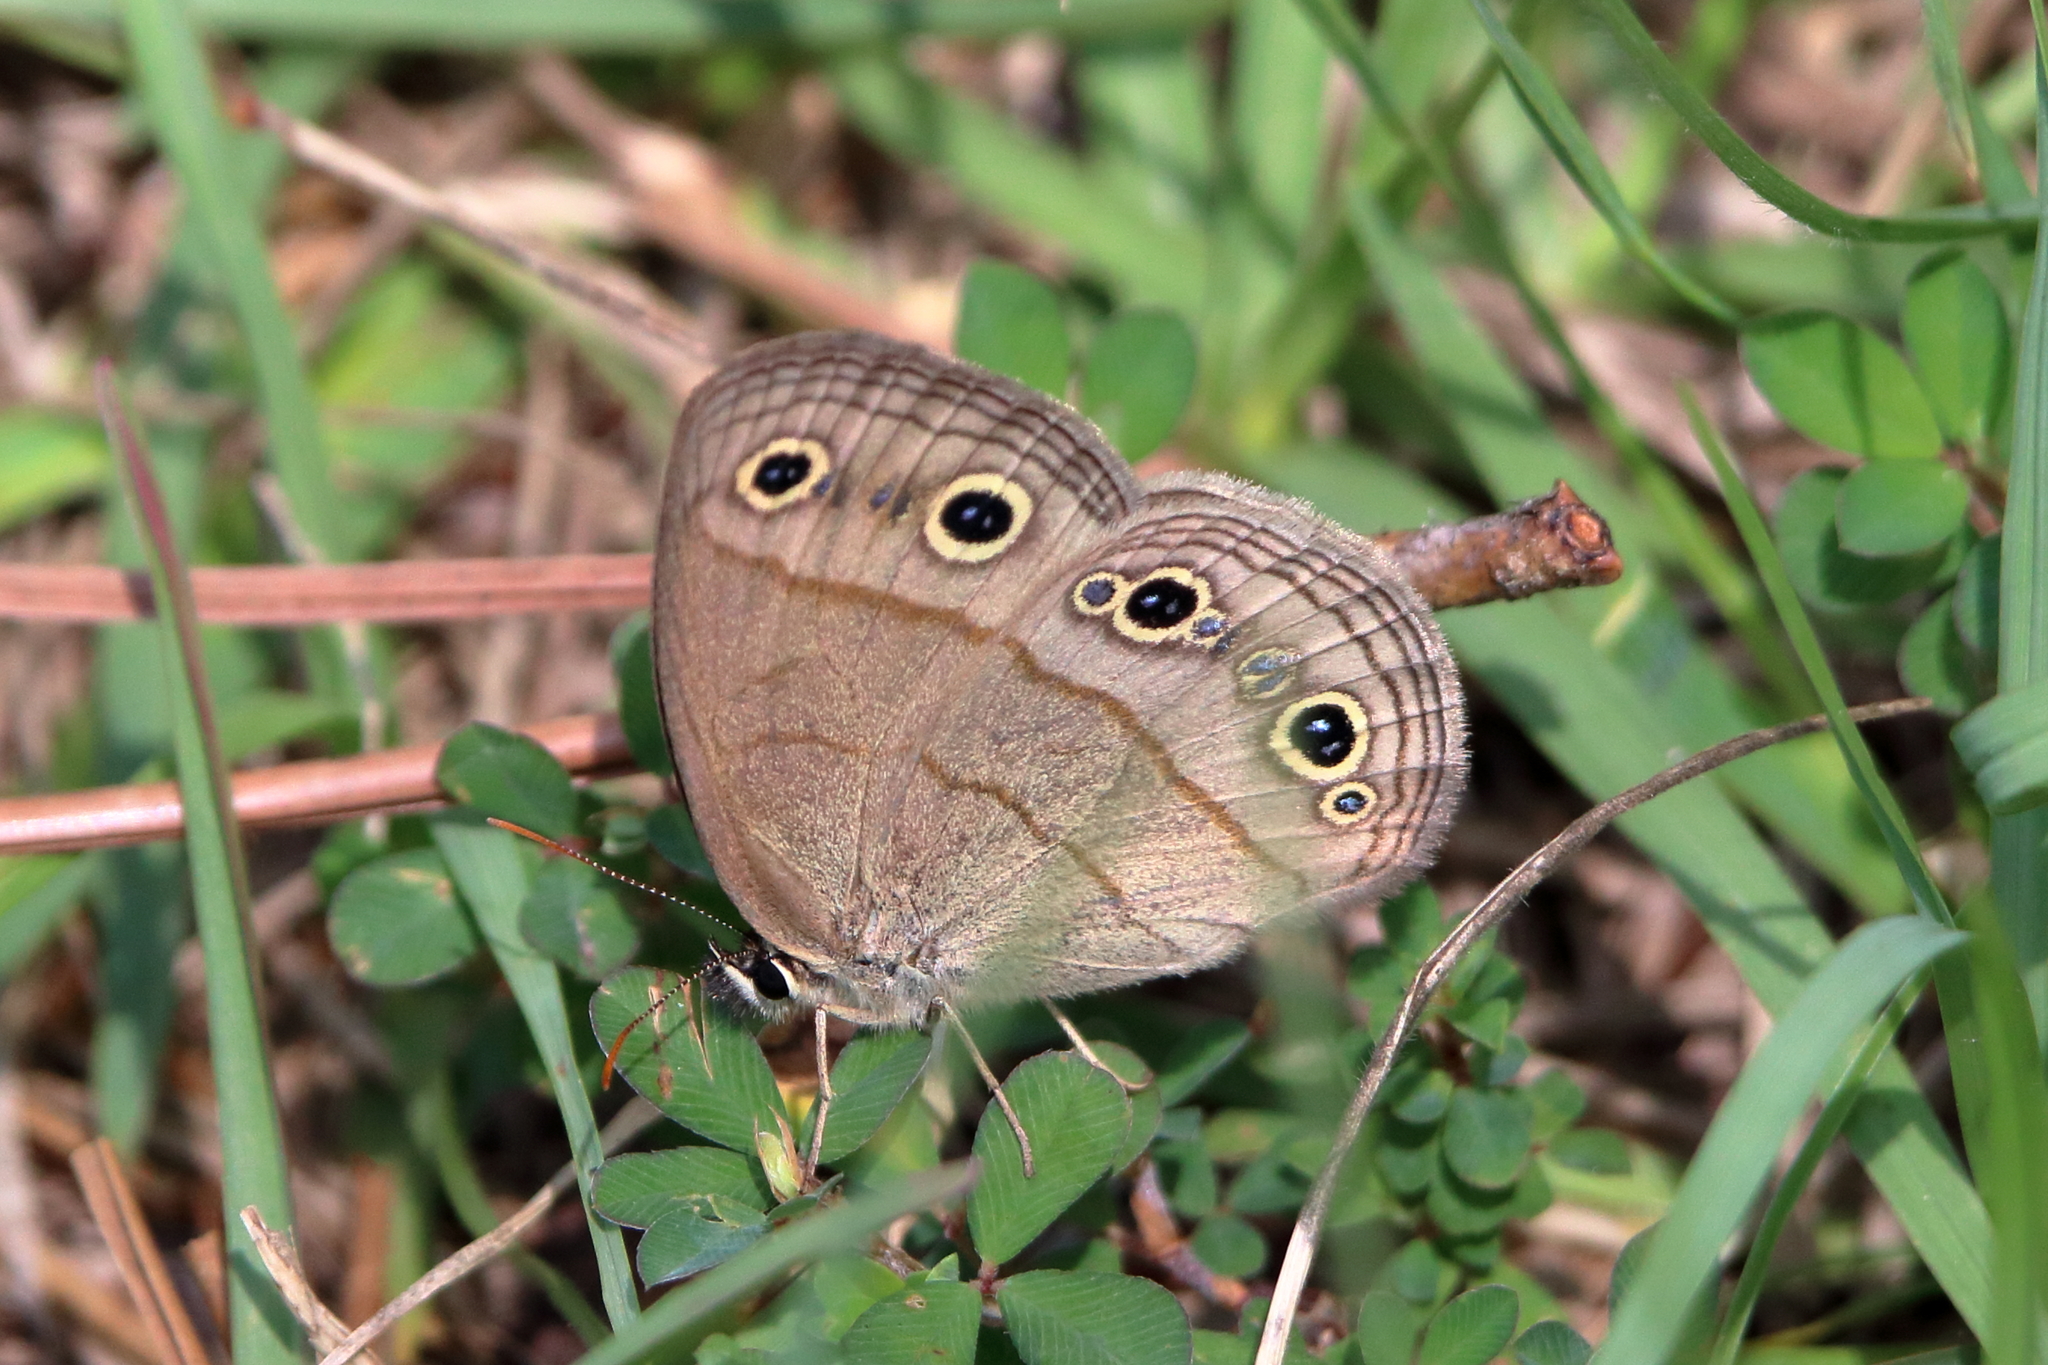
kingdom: Animalia
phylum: Arthropoda
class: Insecta
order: Lepidoptera
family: Nymphalidae
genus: Euptychia
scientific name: Euptychia cymela
